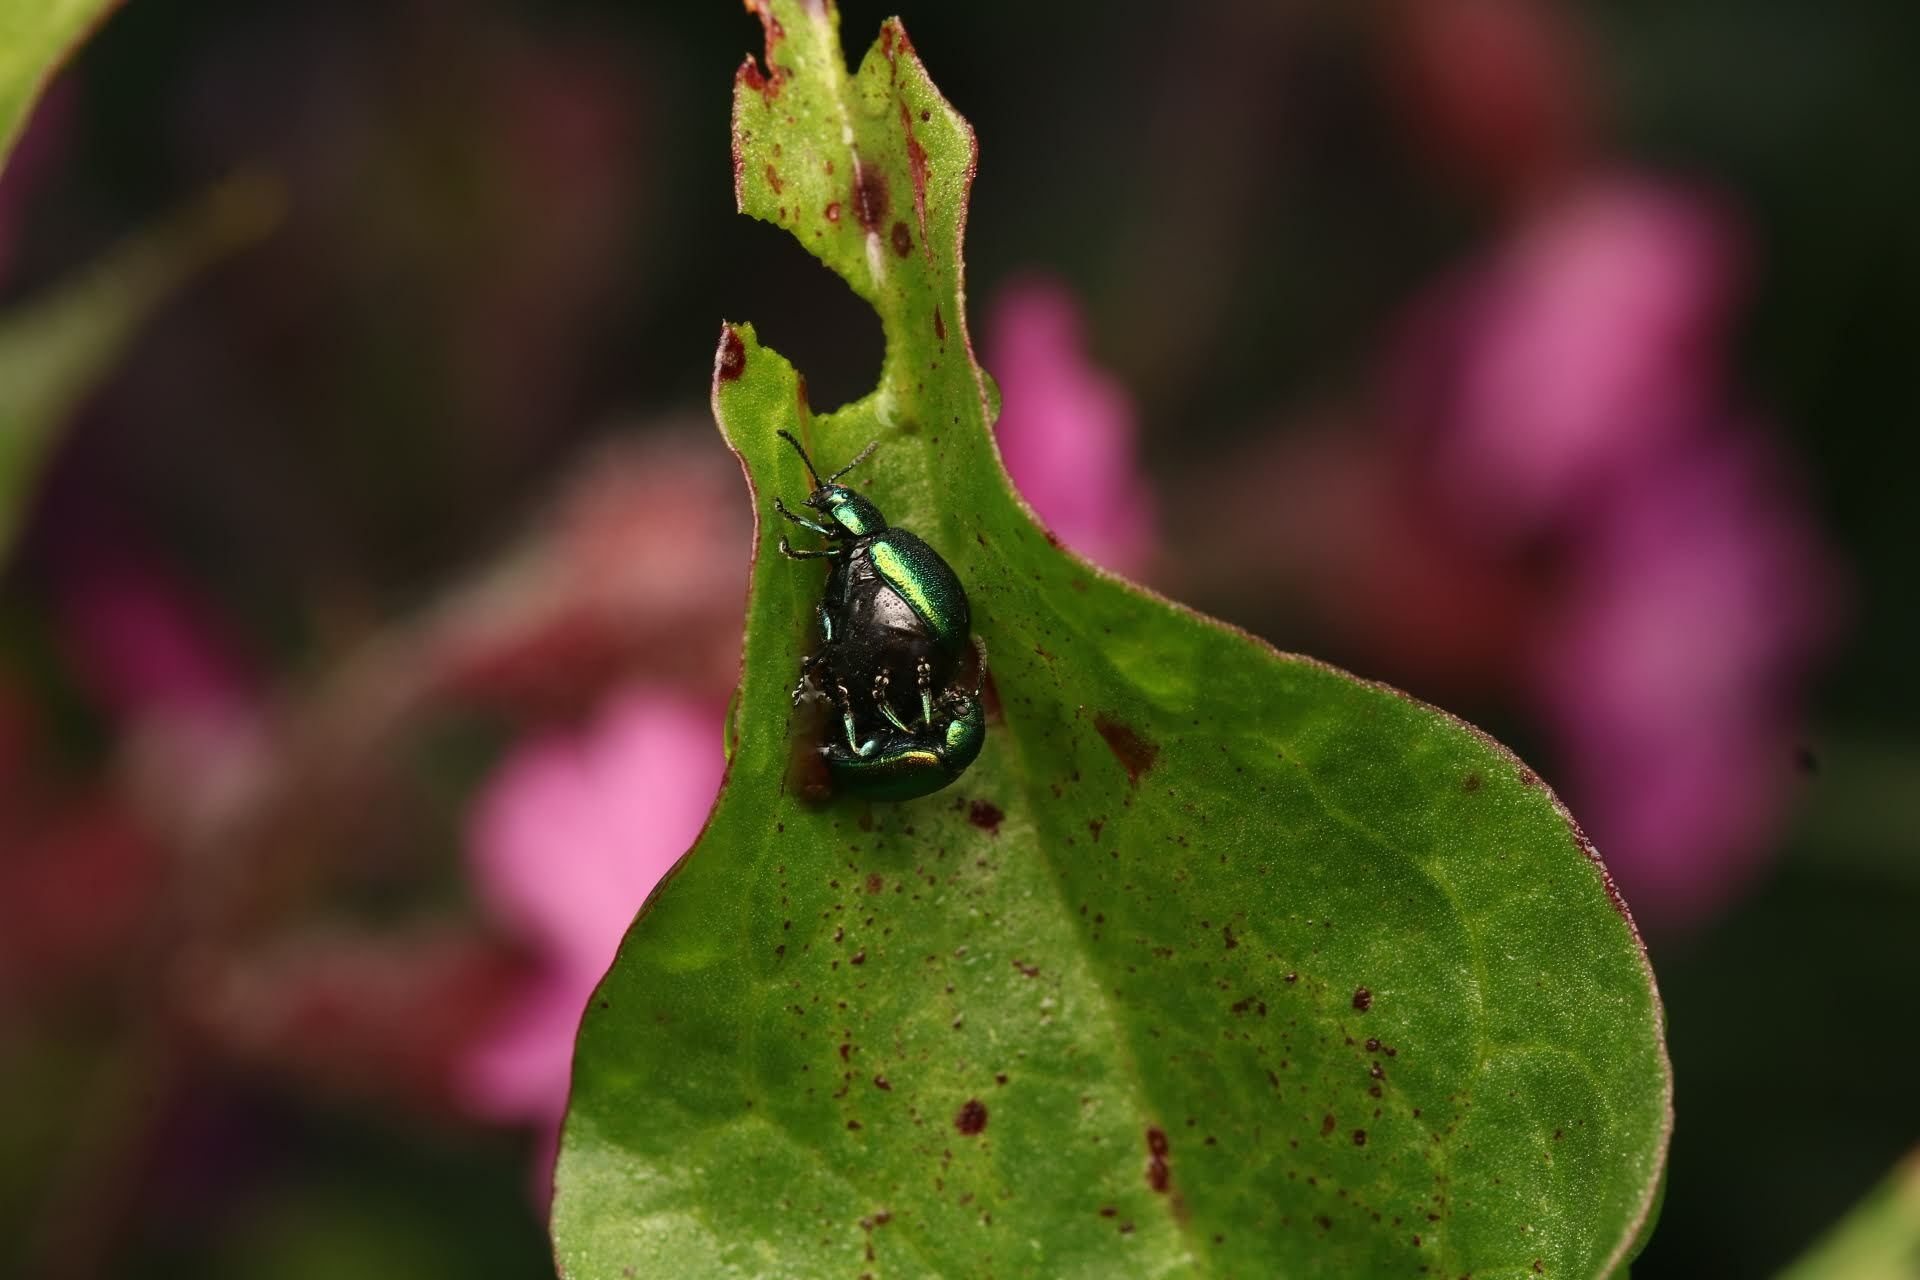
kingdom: Animalia
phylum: Arthropoda
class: Insecta
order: Coleoptera
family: Chrysomelidae
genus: Gastrophysa
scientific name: Gastrophysa viridula
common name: Green dock beetle
